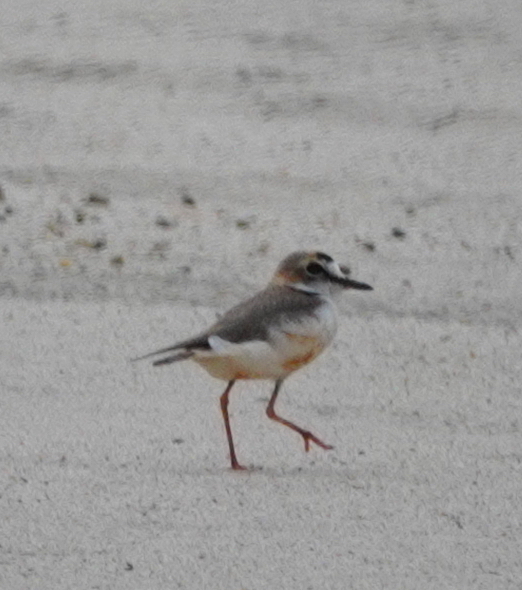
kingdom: Animalia
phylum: Chordata
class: Aves
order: Charadriiformes
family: Charadriidae
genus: Anarhynchus
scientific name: Anarhynchus
